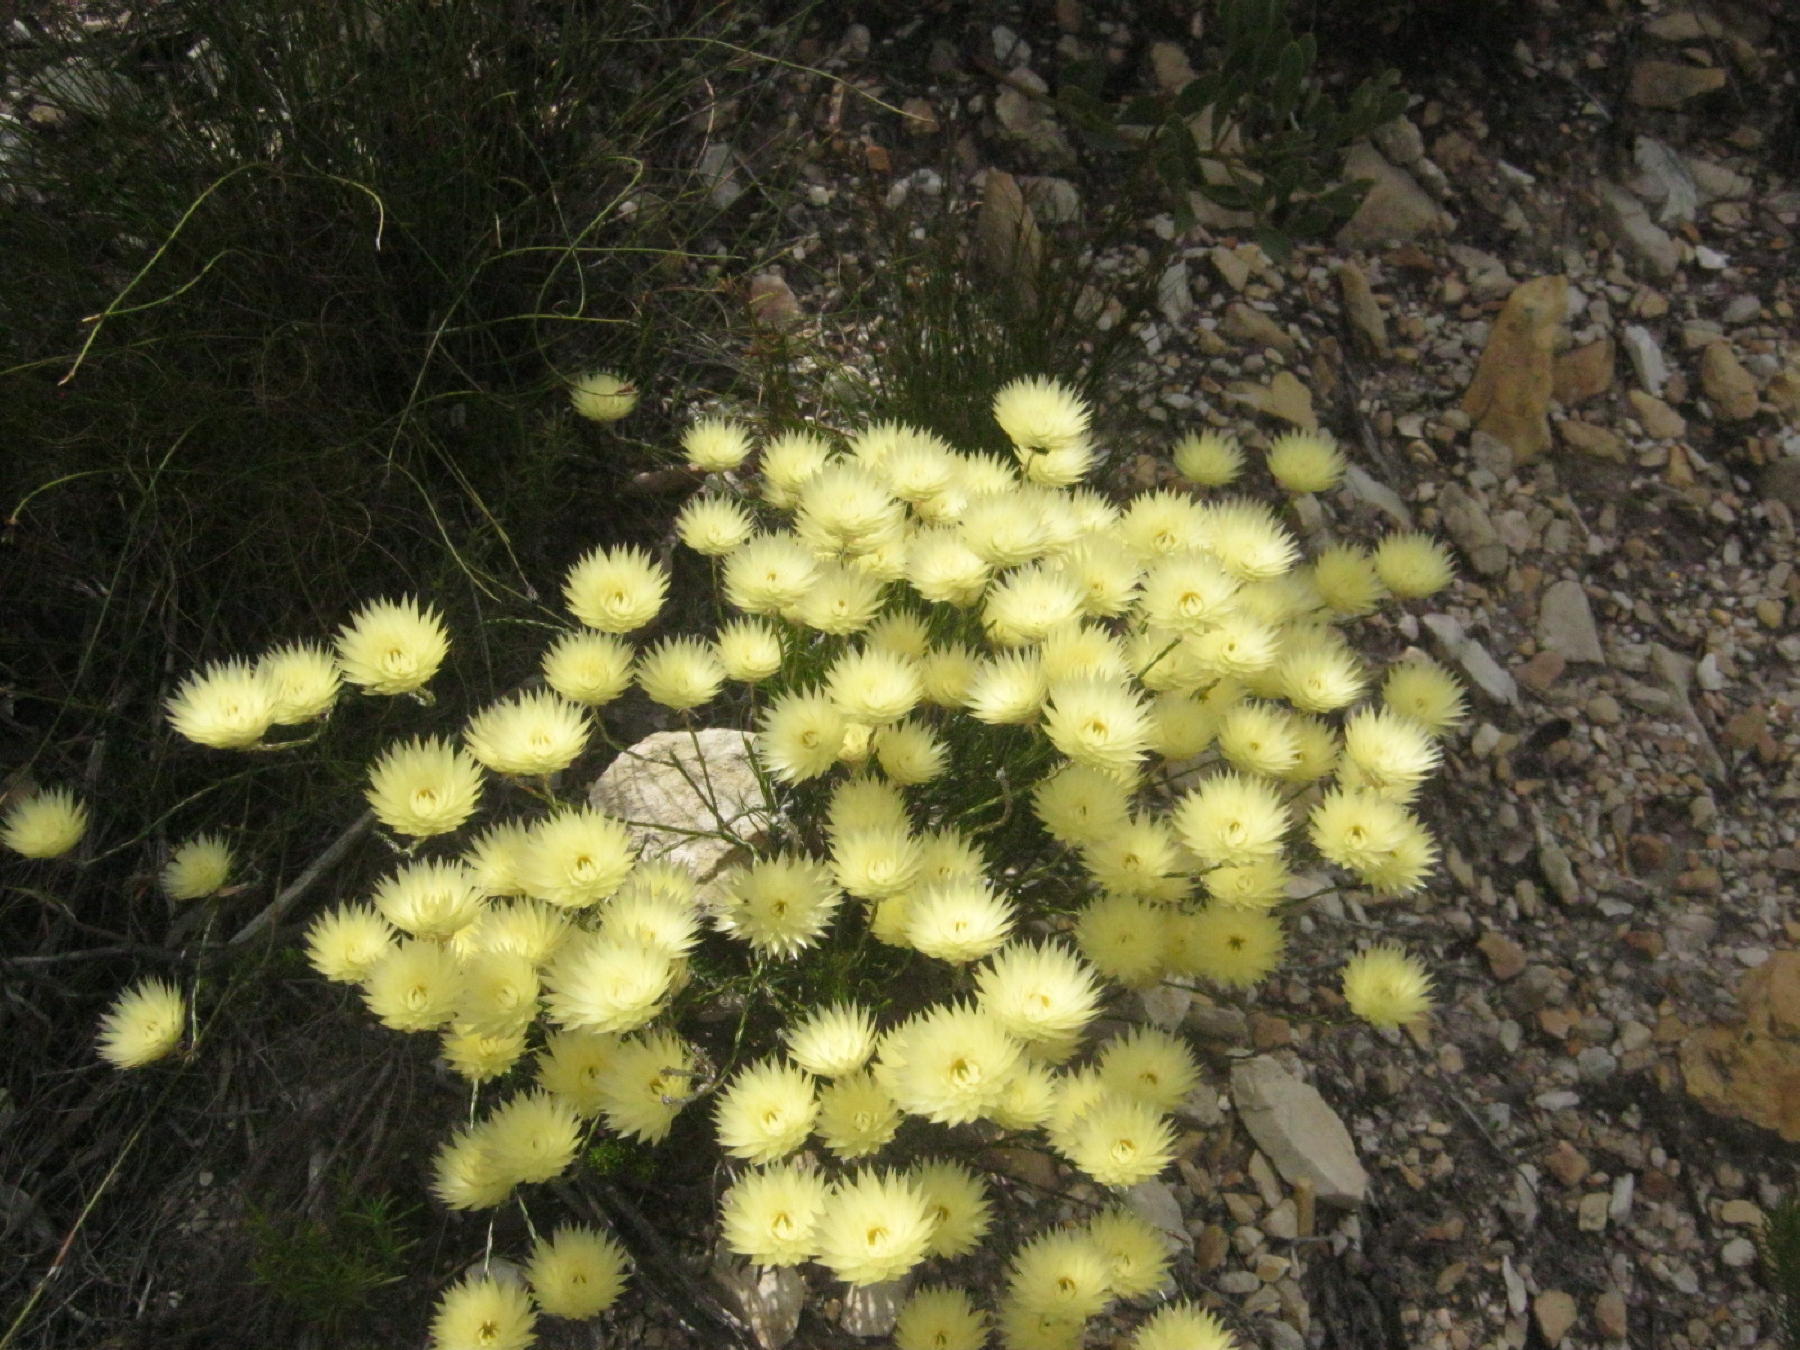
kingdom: Plantae
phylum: Tracheophyta
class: Magnoliopsida
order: Asterales
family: Asteraceae
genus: Edmondia
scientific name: Edmondia sesamoides
